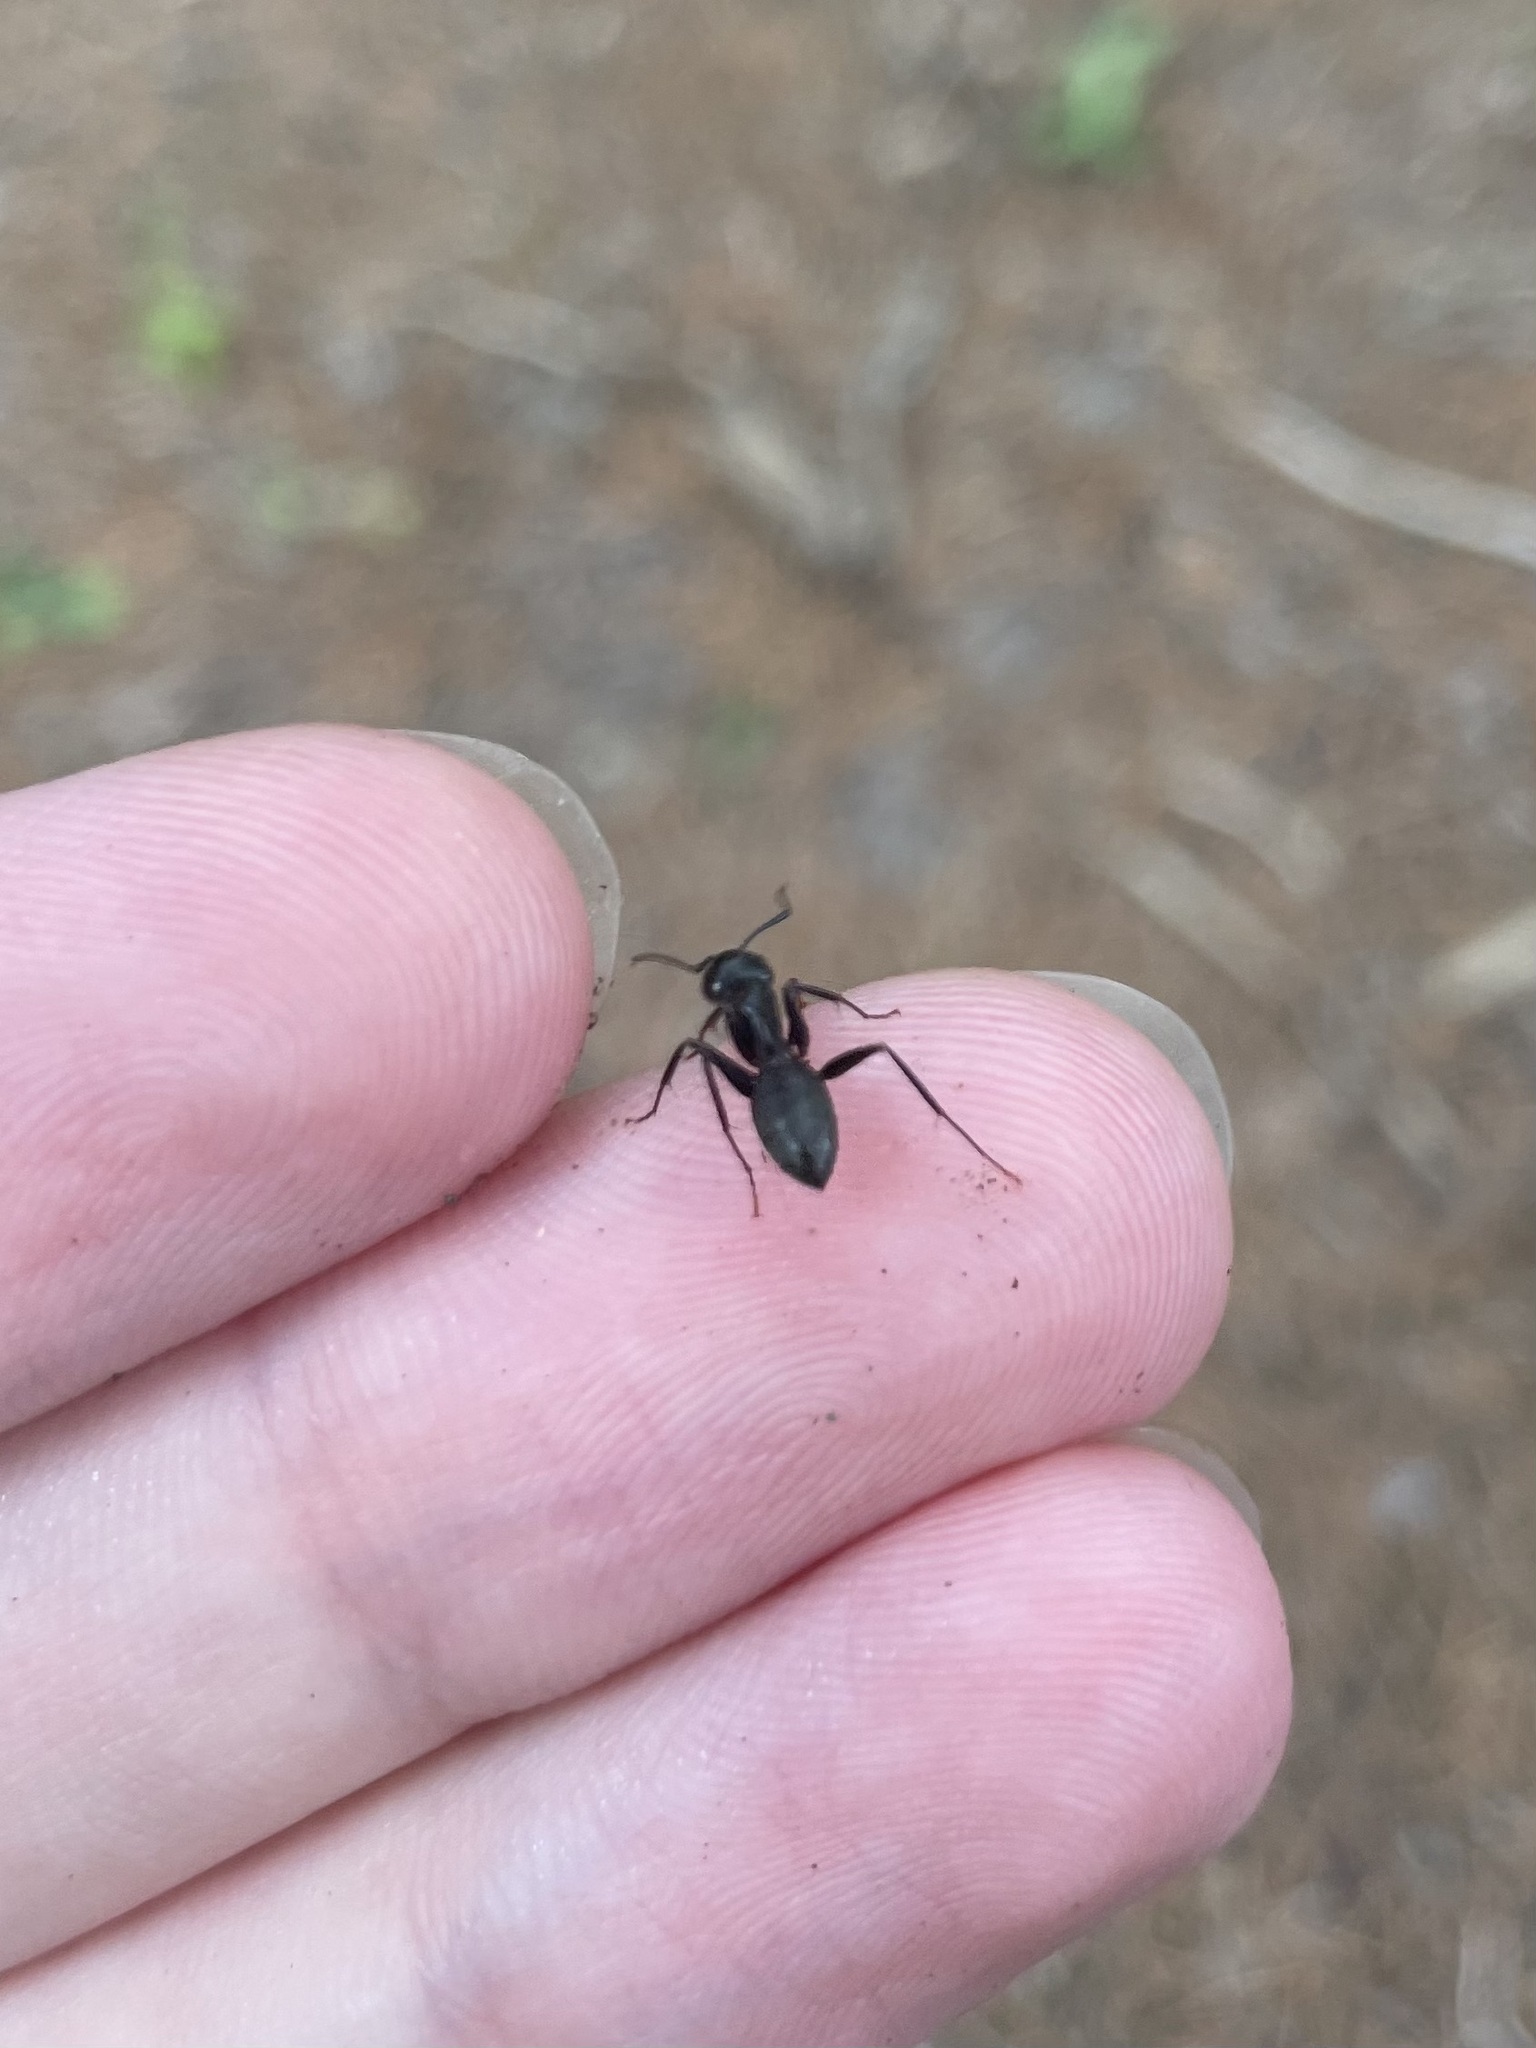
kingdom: Animalia
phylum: Arthropoda
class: Insecta
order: Hymenoptera
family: Formicidae
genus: Camponotus
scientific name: Camponotus pennsylvanicus
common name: Black carpenter ant
